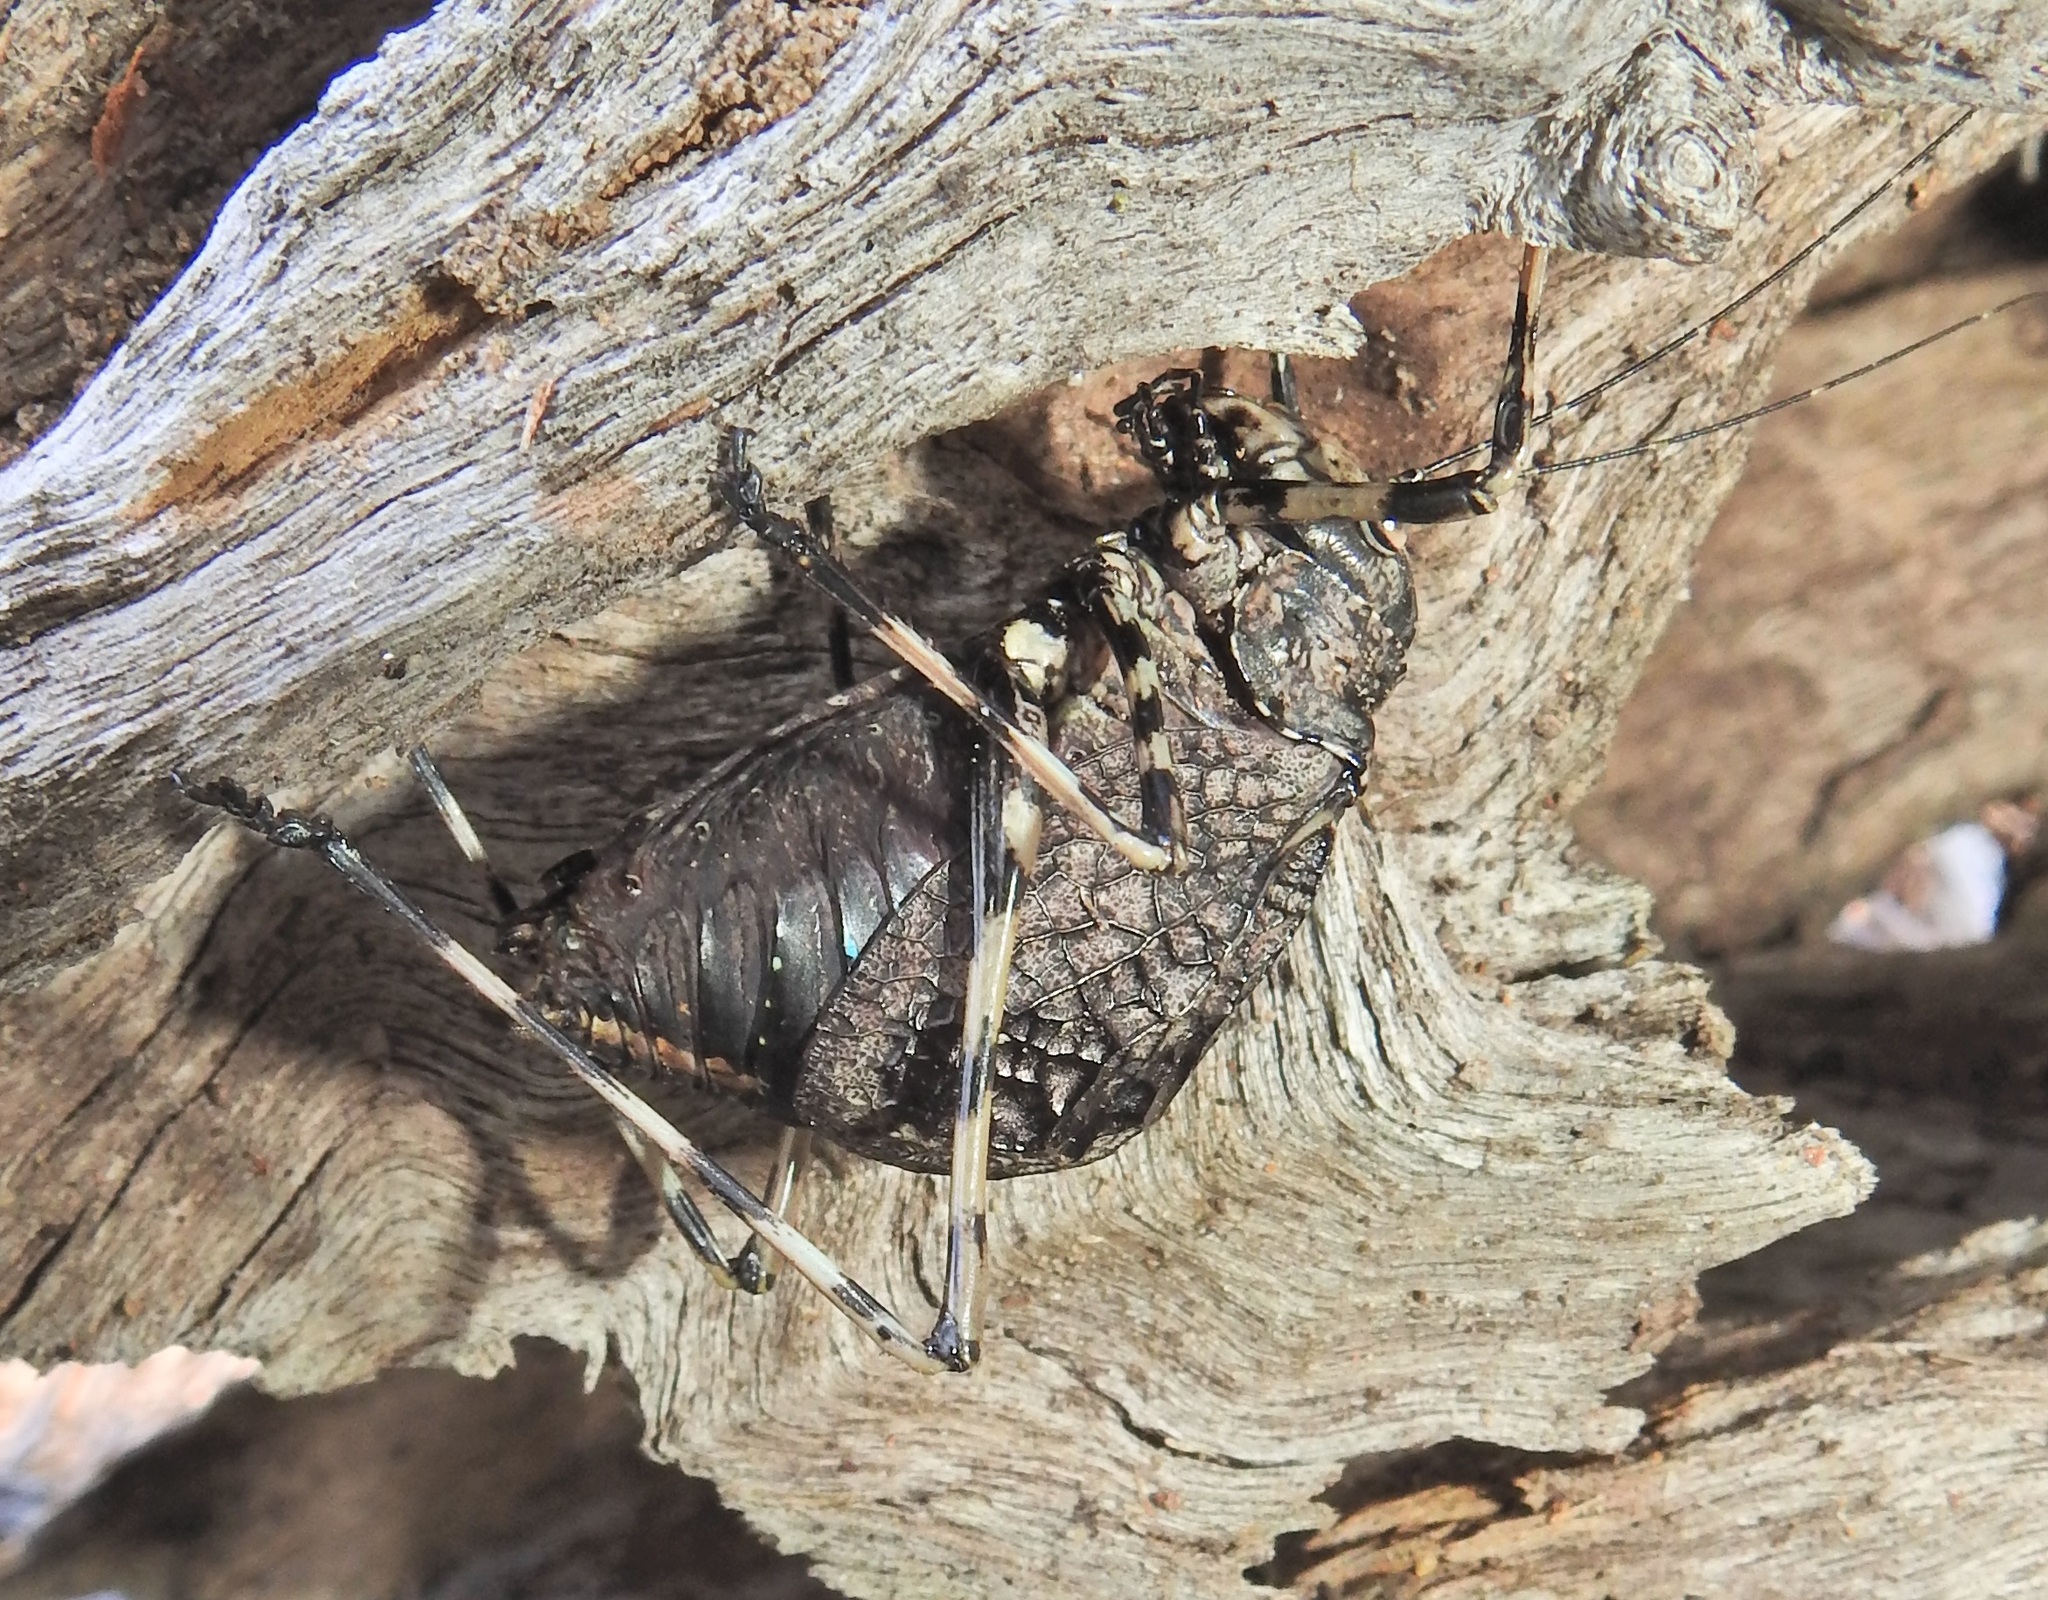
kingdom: Animalia
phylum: Arthropoda
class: Insecta
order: Orthoptera
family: Tettigoniidae
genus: Acripeza
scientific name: Acripeza reticulata
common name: Mountain katydid
